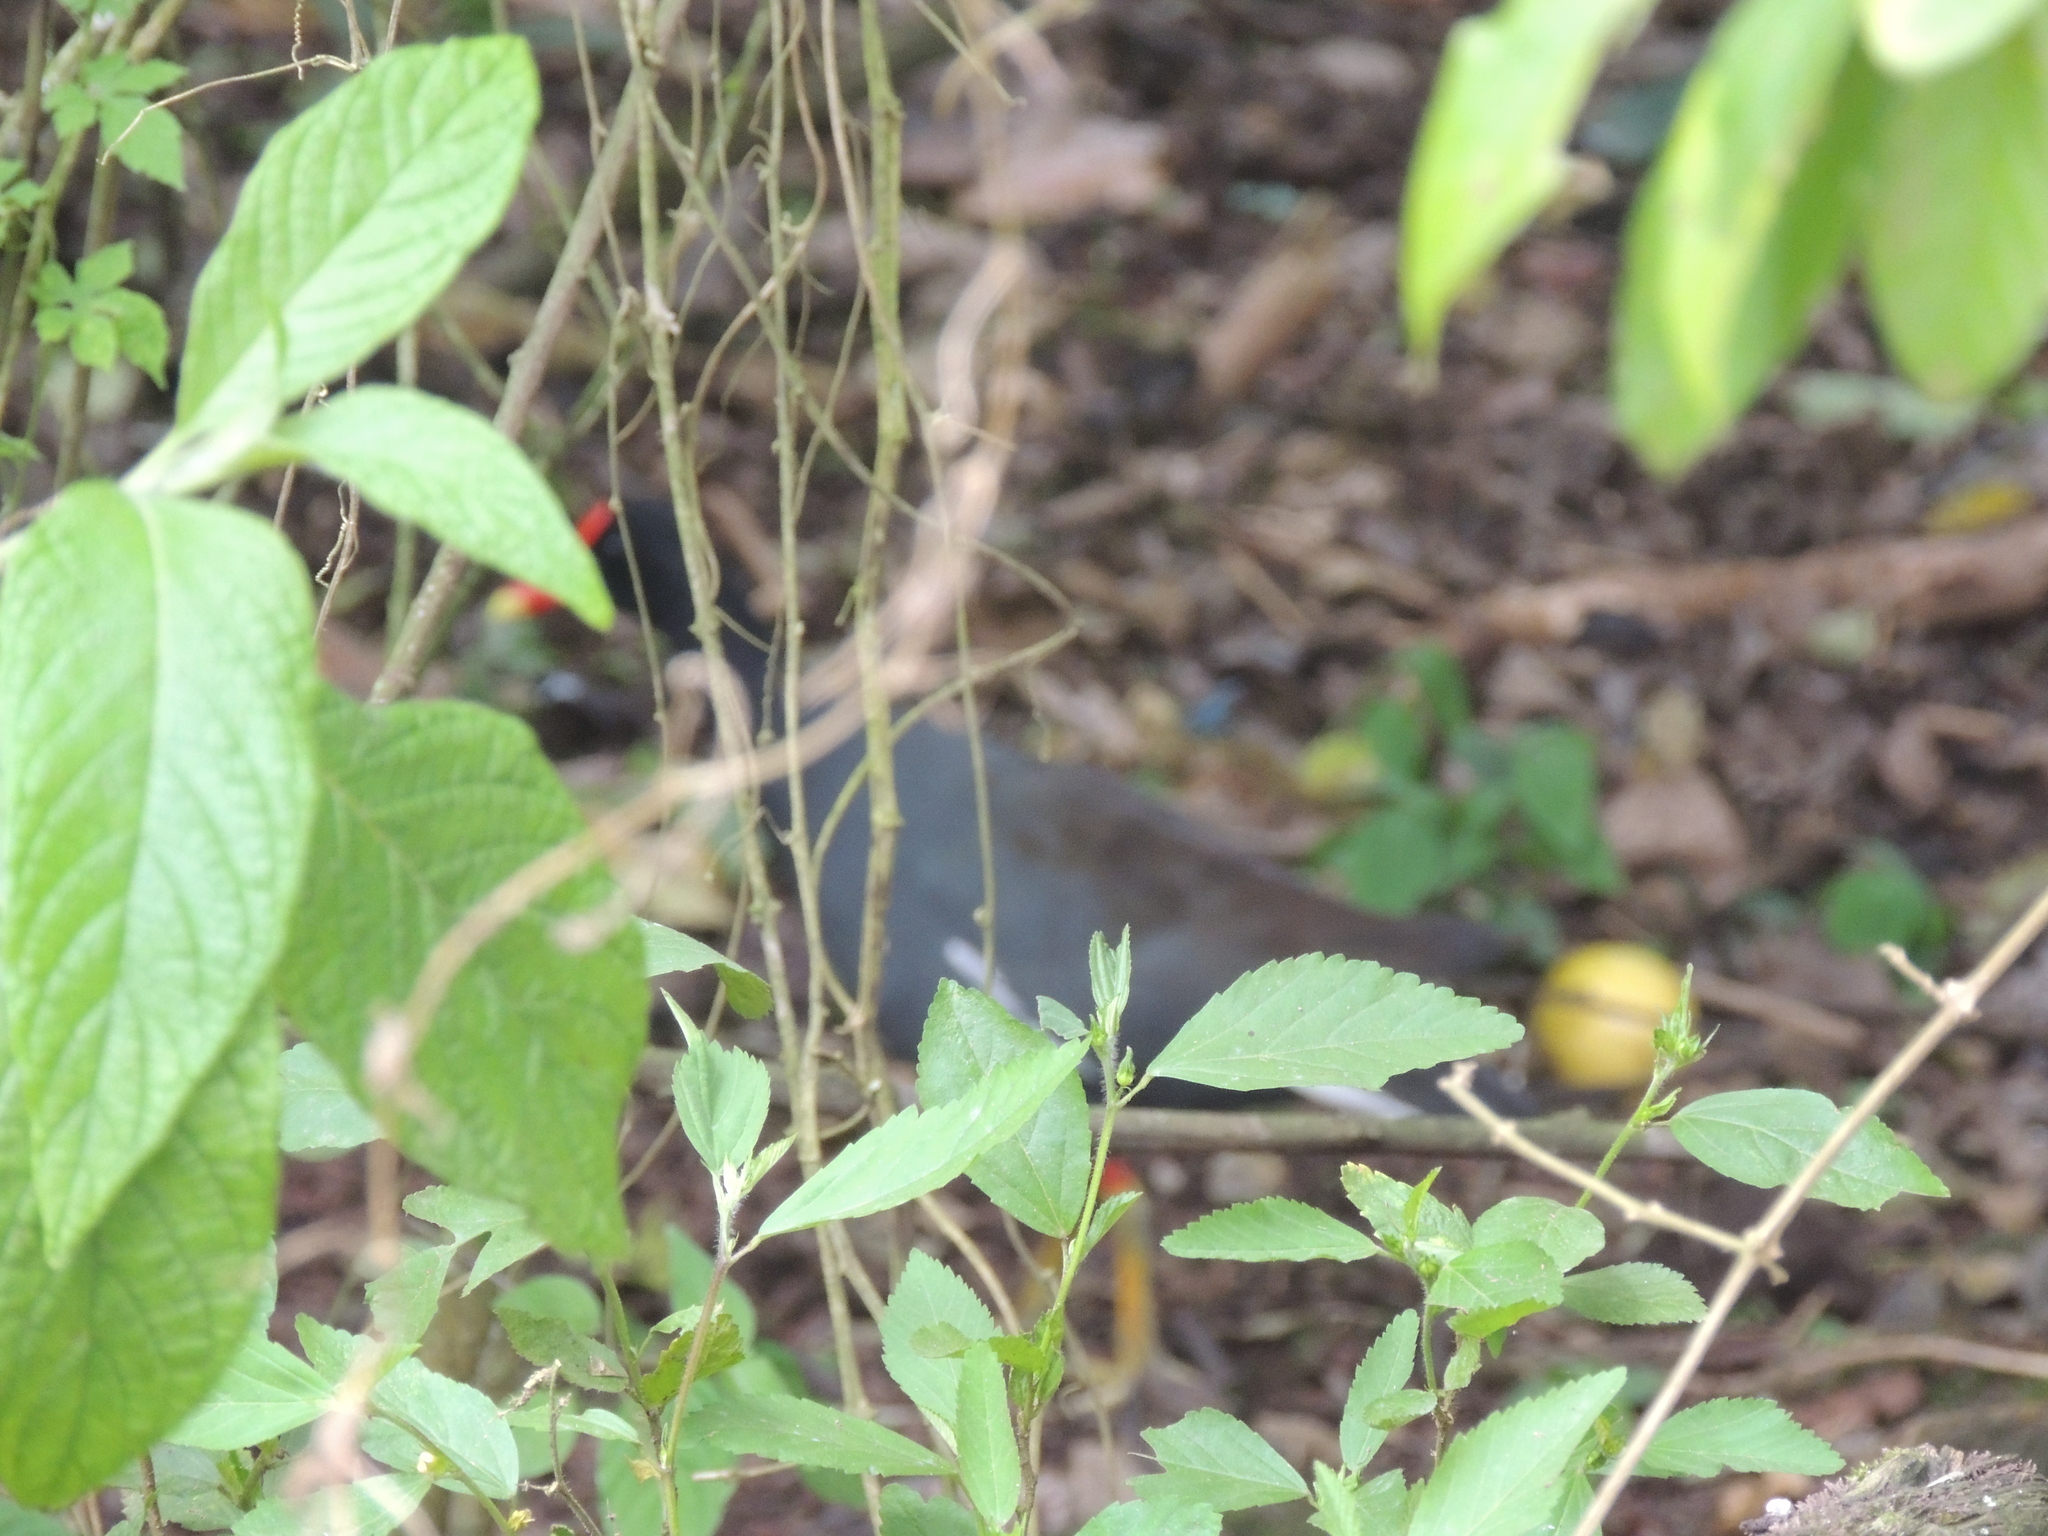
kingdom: Animalia
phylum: Chordata
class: Aves
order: Gruiformes
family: Rallidae
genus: Gallinula
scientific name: Gallinula chloropus
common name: Common moorhen
